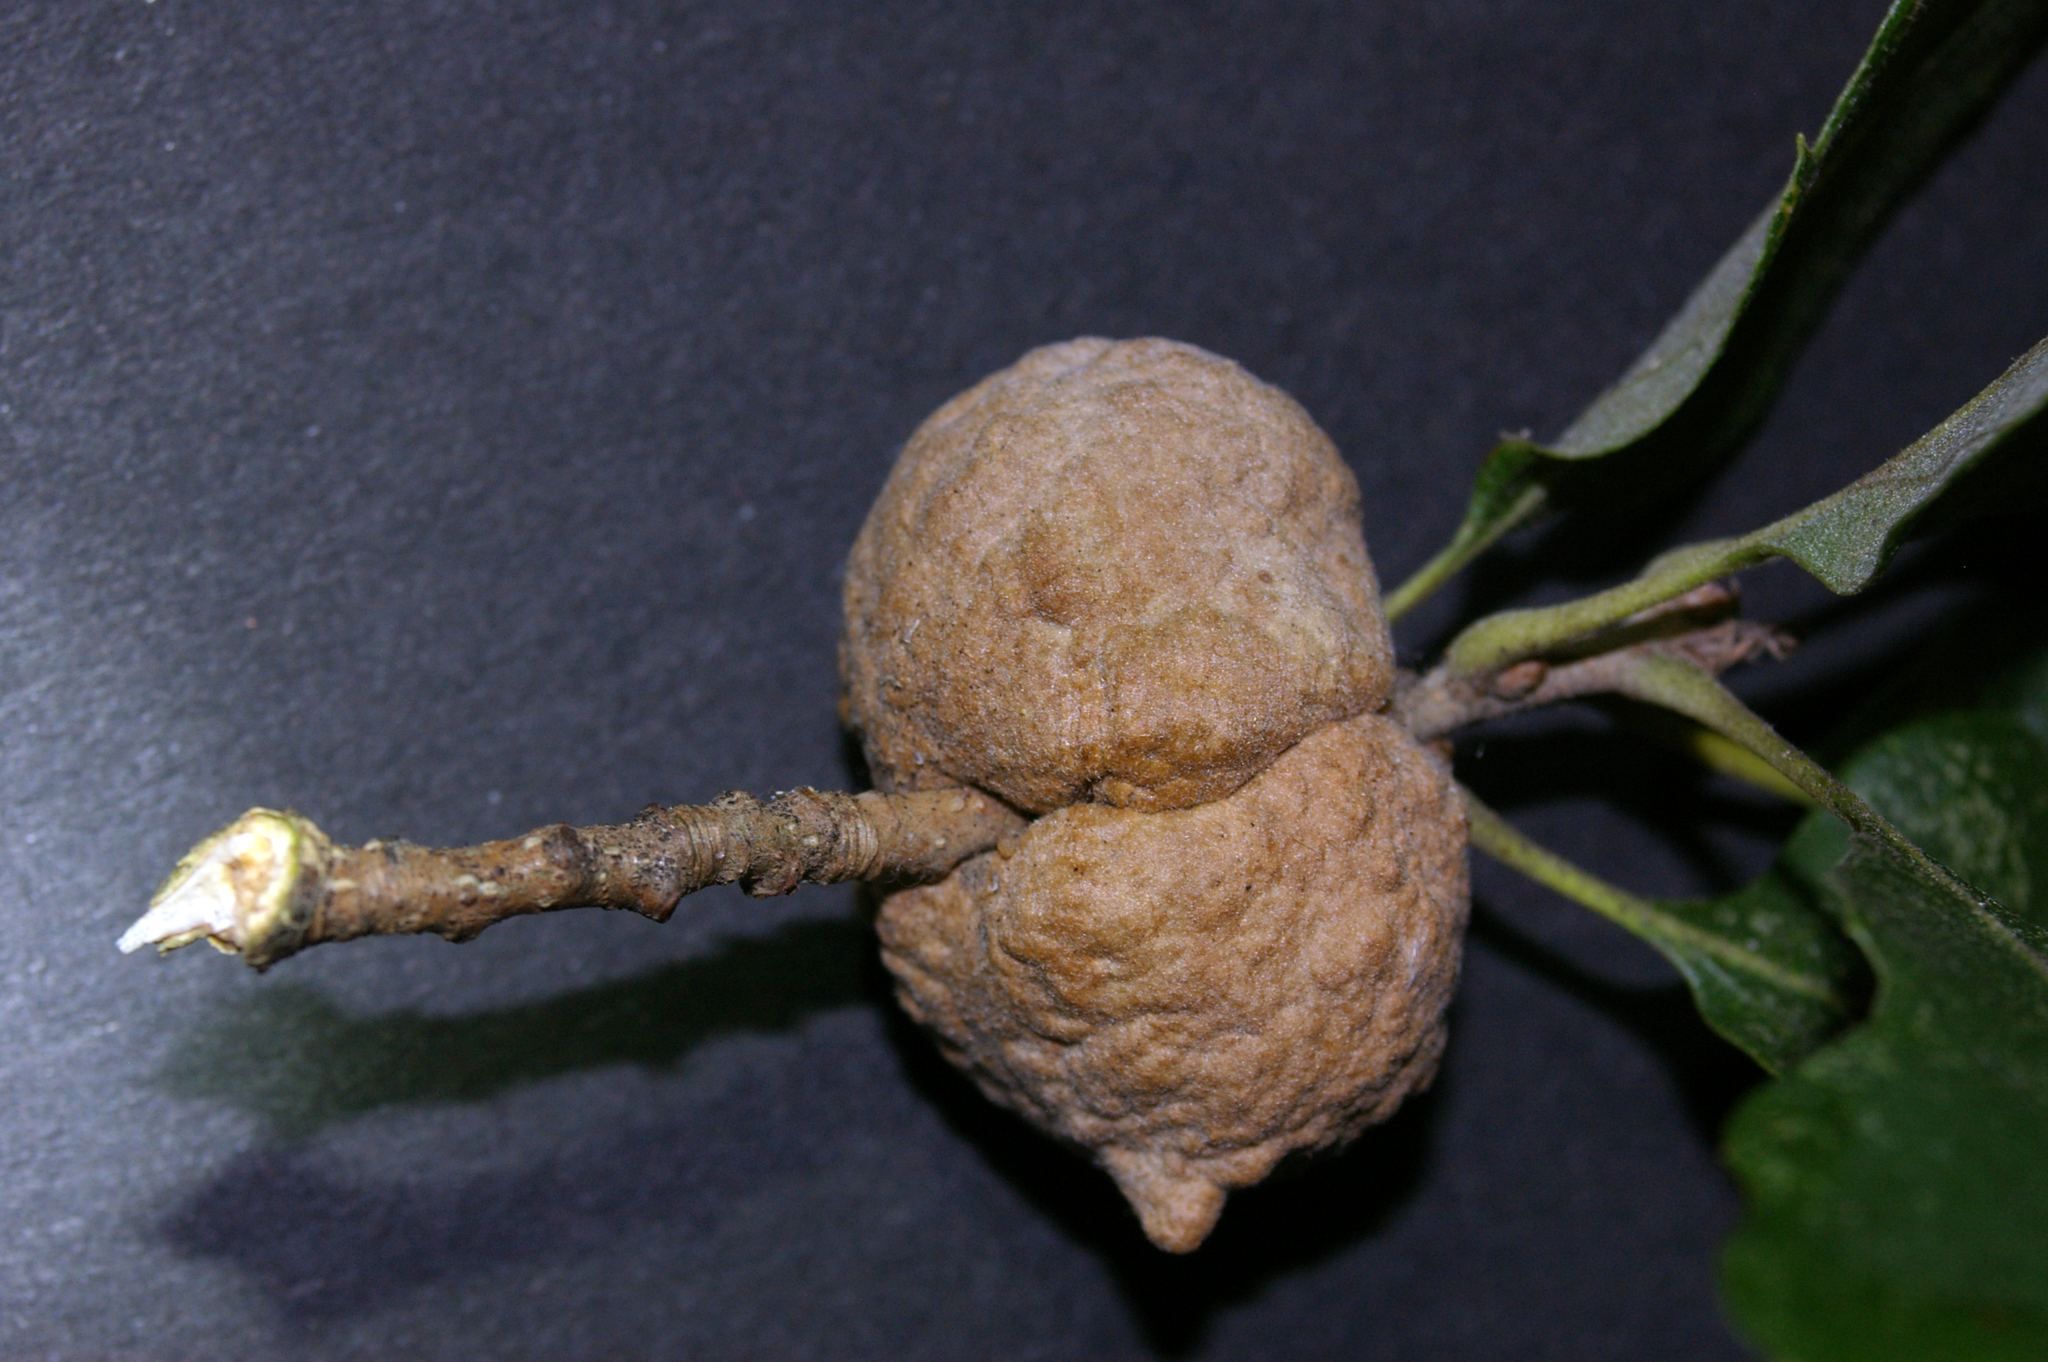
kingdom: Animalia
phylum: Arthropoda
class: Insecta
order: Hymenoptera
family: Cynipidae
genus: Aphelonyx
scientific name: Aphelonyx cerricola
